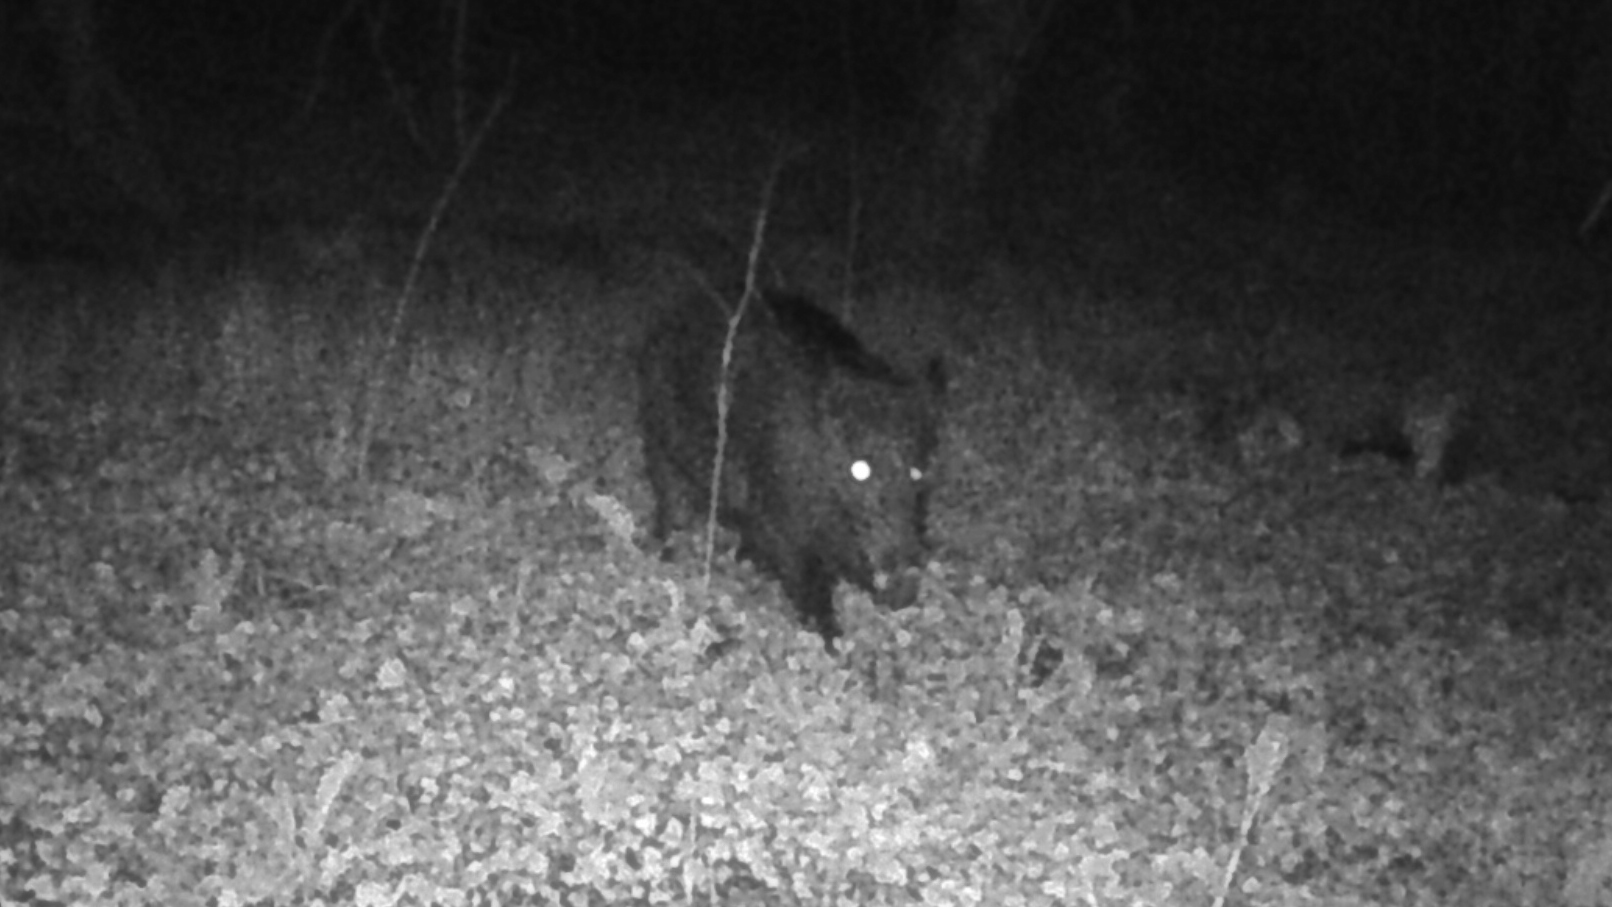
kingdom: Animalia
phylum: Chordata
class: Mammalia
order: Artiodactyla
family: Suidae
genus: Sus
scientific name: Sus scrofa
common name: Wild boar
